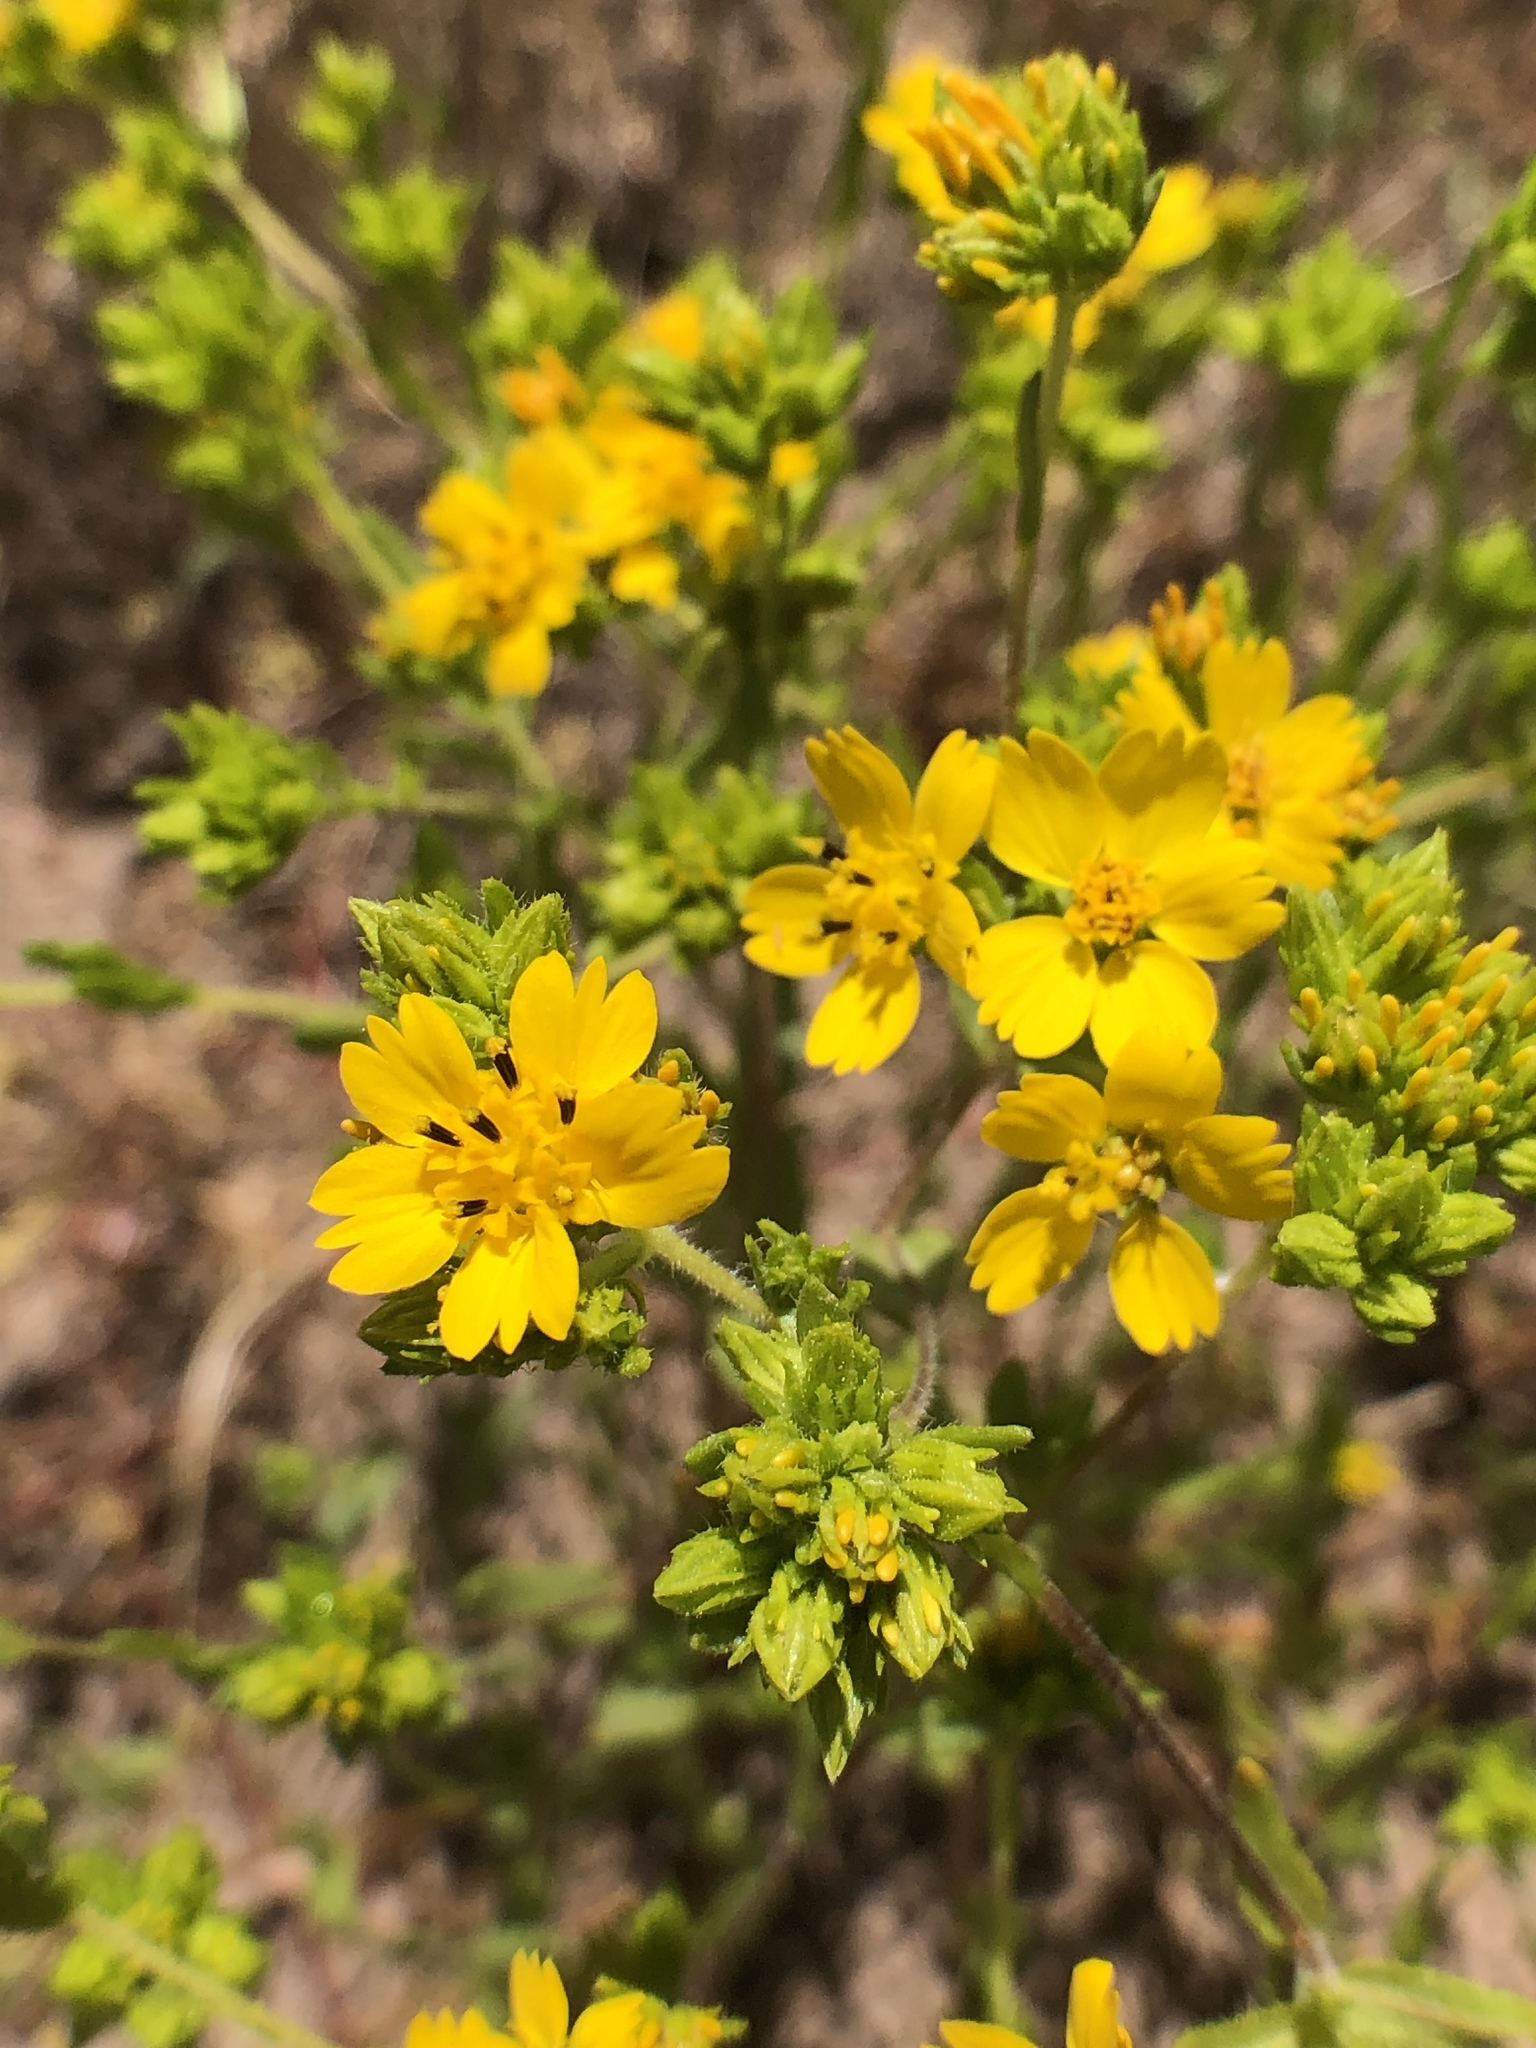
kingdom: Plantae
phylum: Tracheophyta
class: Magnoliopsida
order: Asterales
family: Asteraceae
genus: Deinandra
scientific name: Deinandra fasciculata
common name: Clustered tarweed
